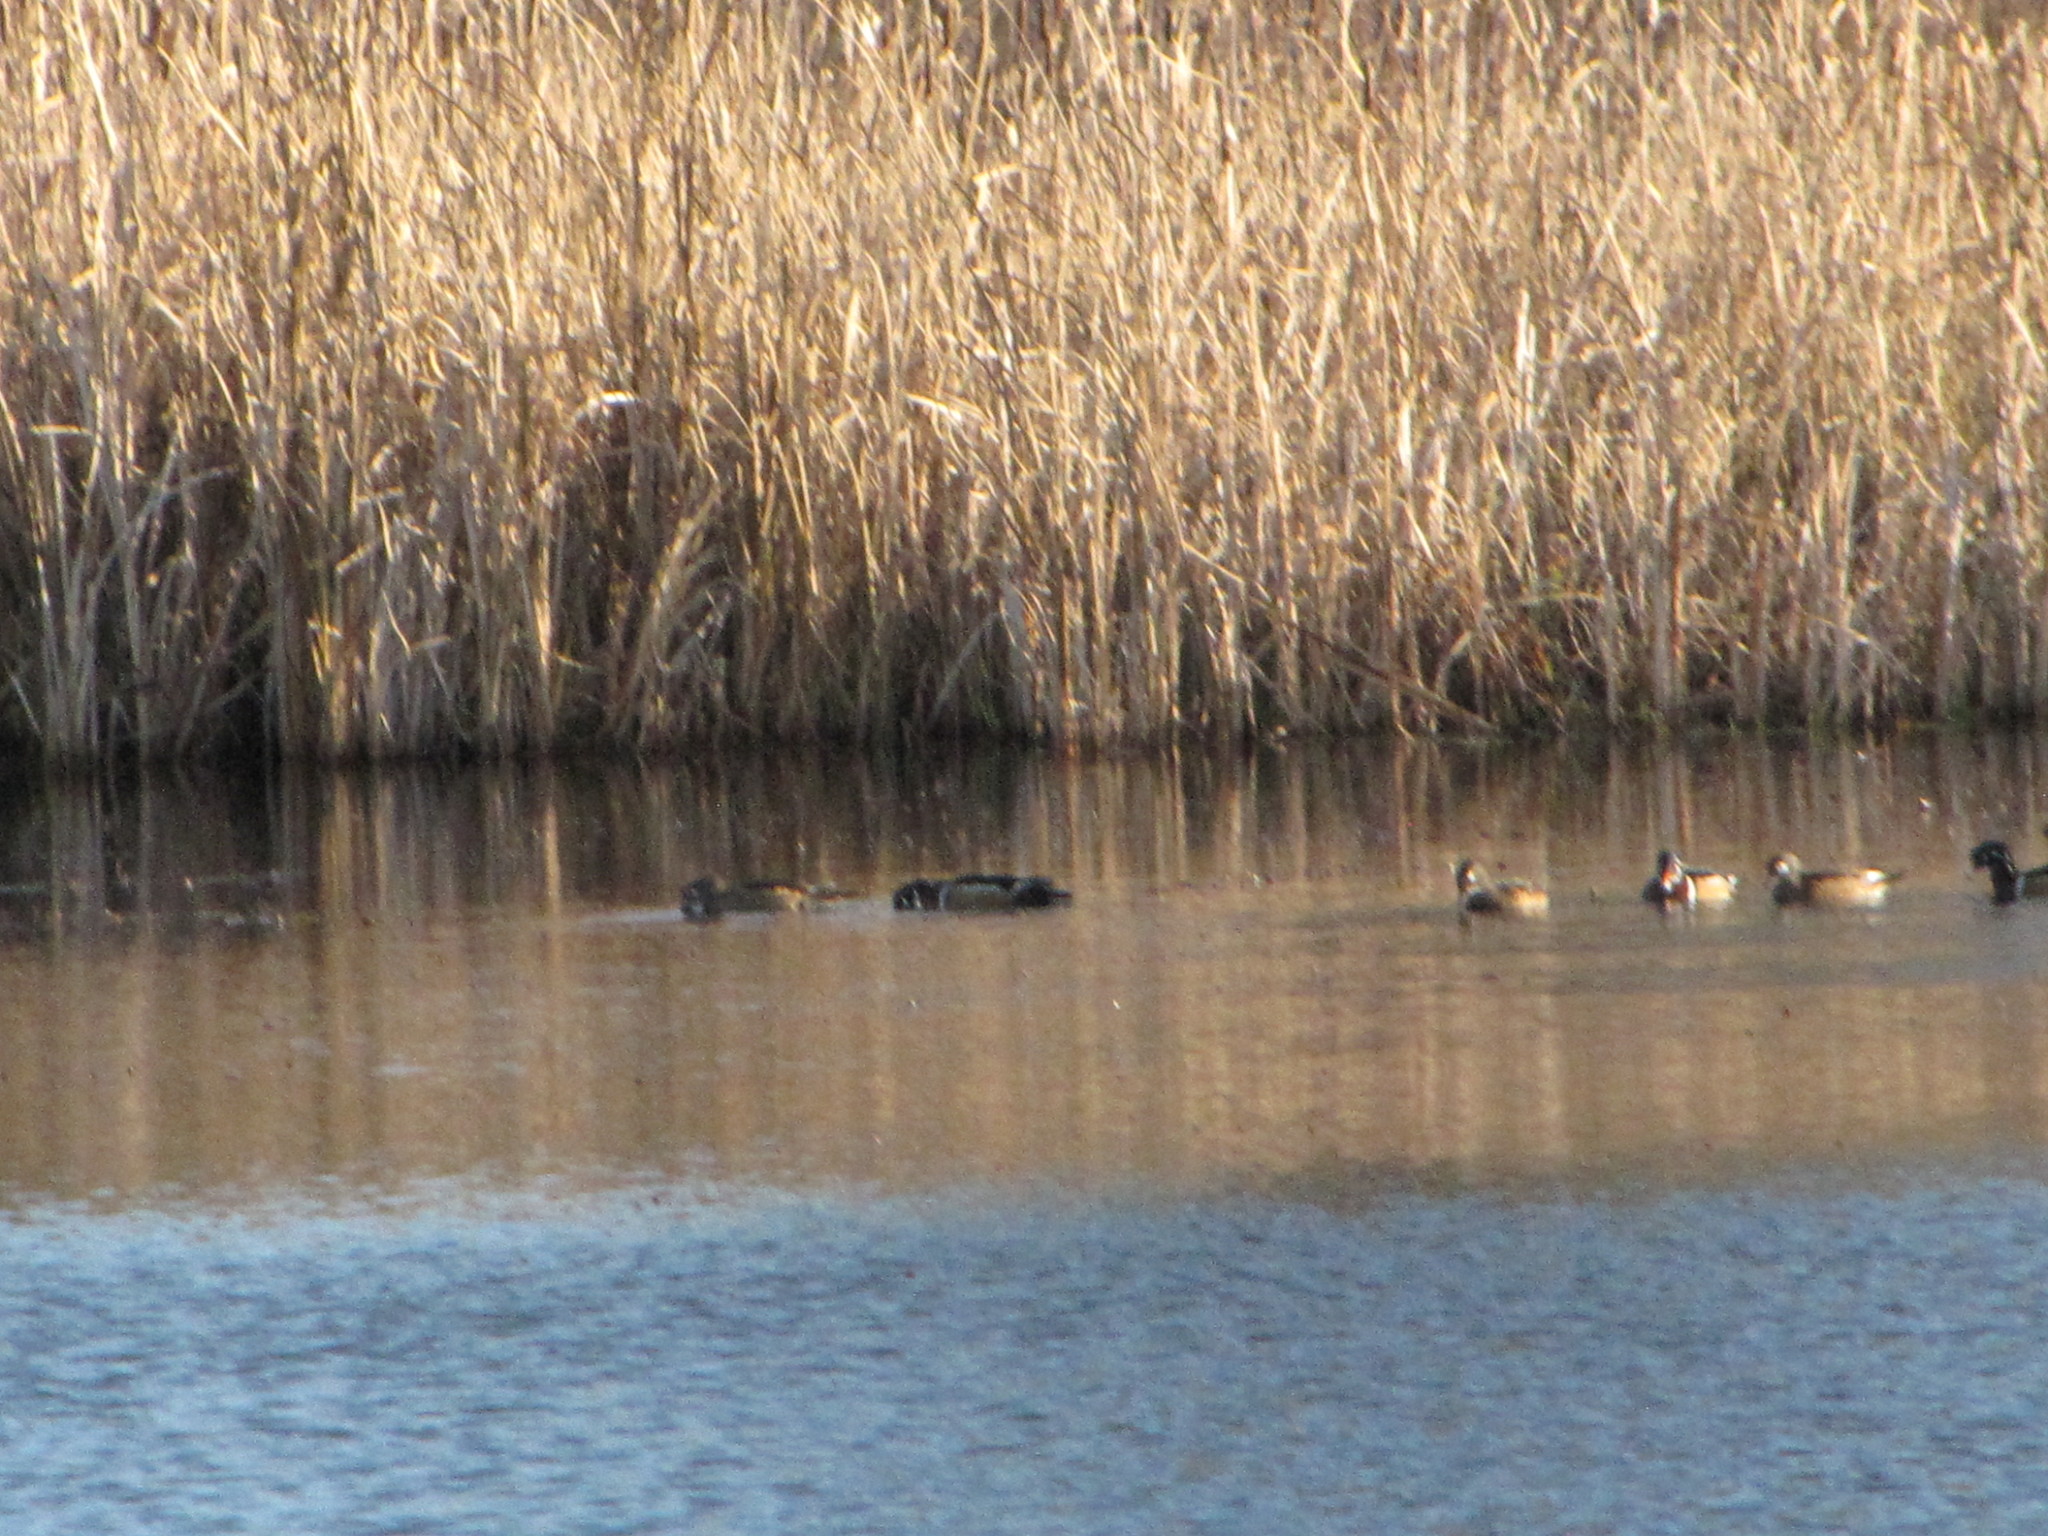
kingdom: Animalia
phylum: Chordata
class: Aves
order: Anseriformes
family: Anatidae
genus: Aix
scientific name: Aix sponsa
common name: Wood duck
